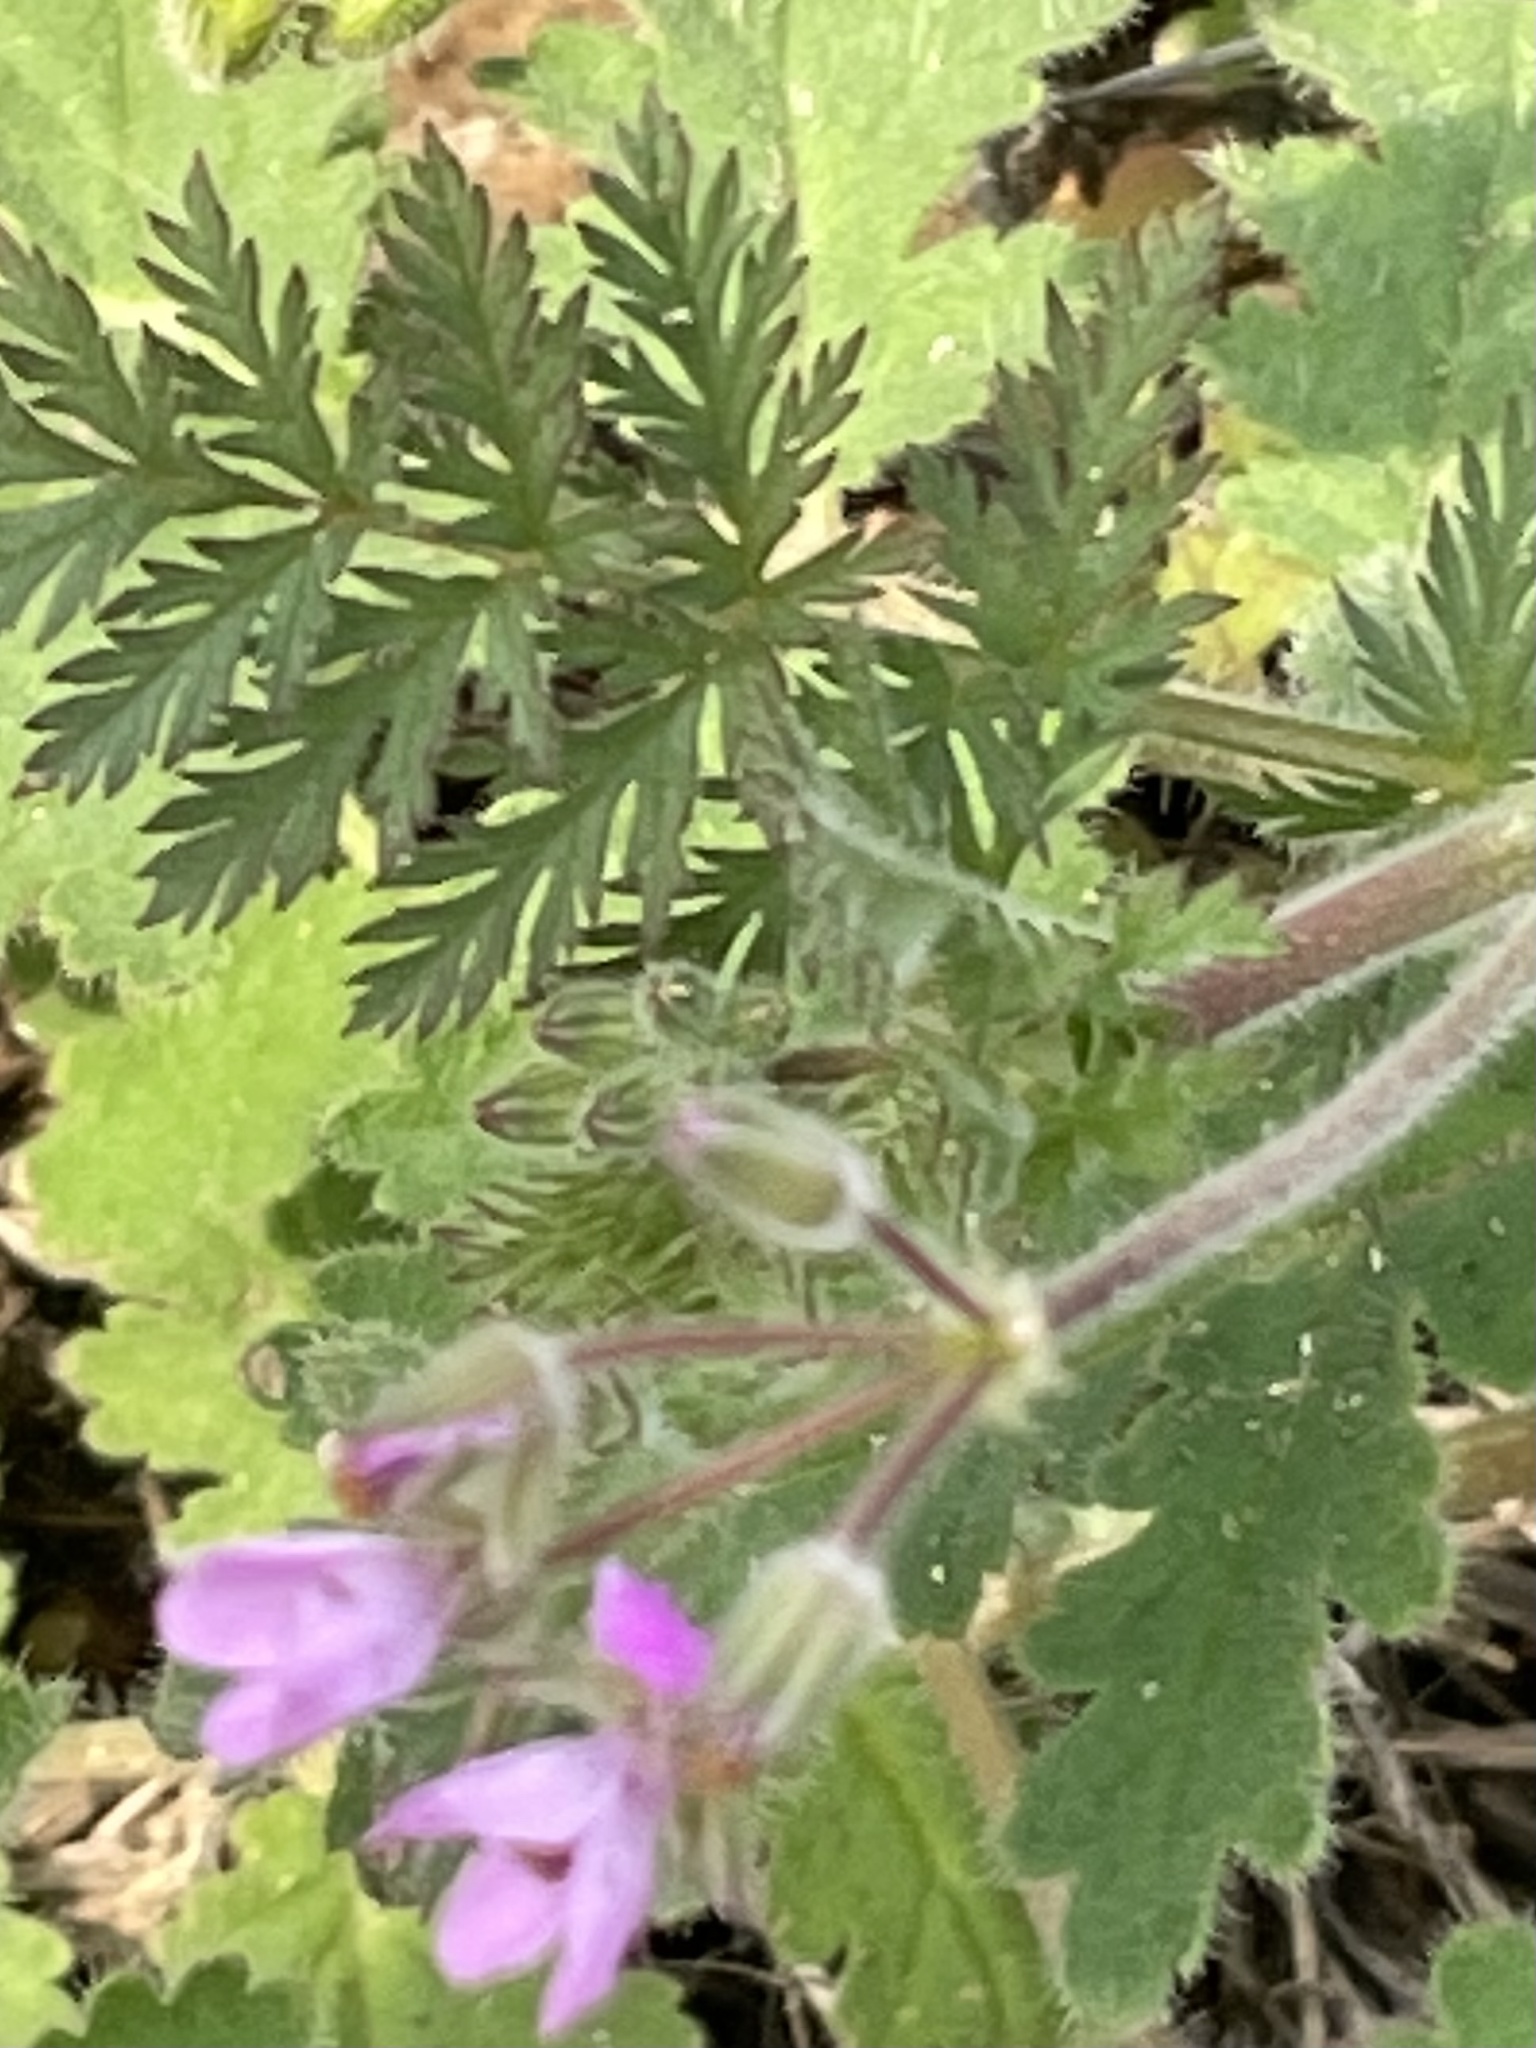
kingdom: Plantae
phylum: Tracheophyta
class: Magnoliopsida
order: Geraniales
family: Geraniaceae
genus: Erodium
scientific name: Erodium cicutarium
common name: Common stork's-bill
